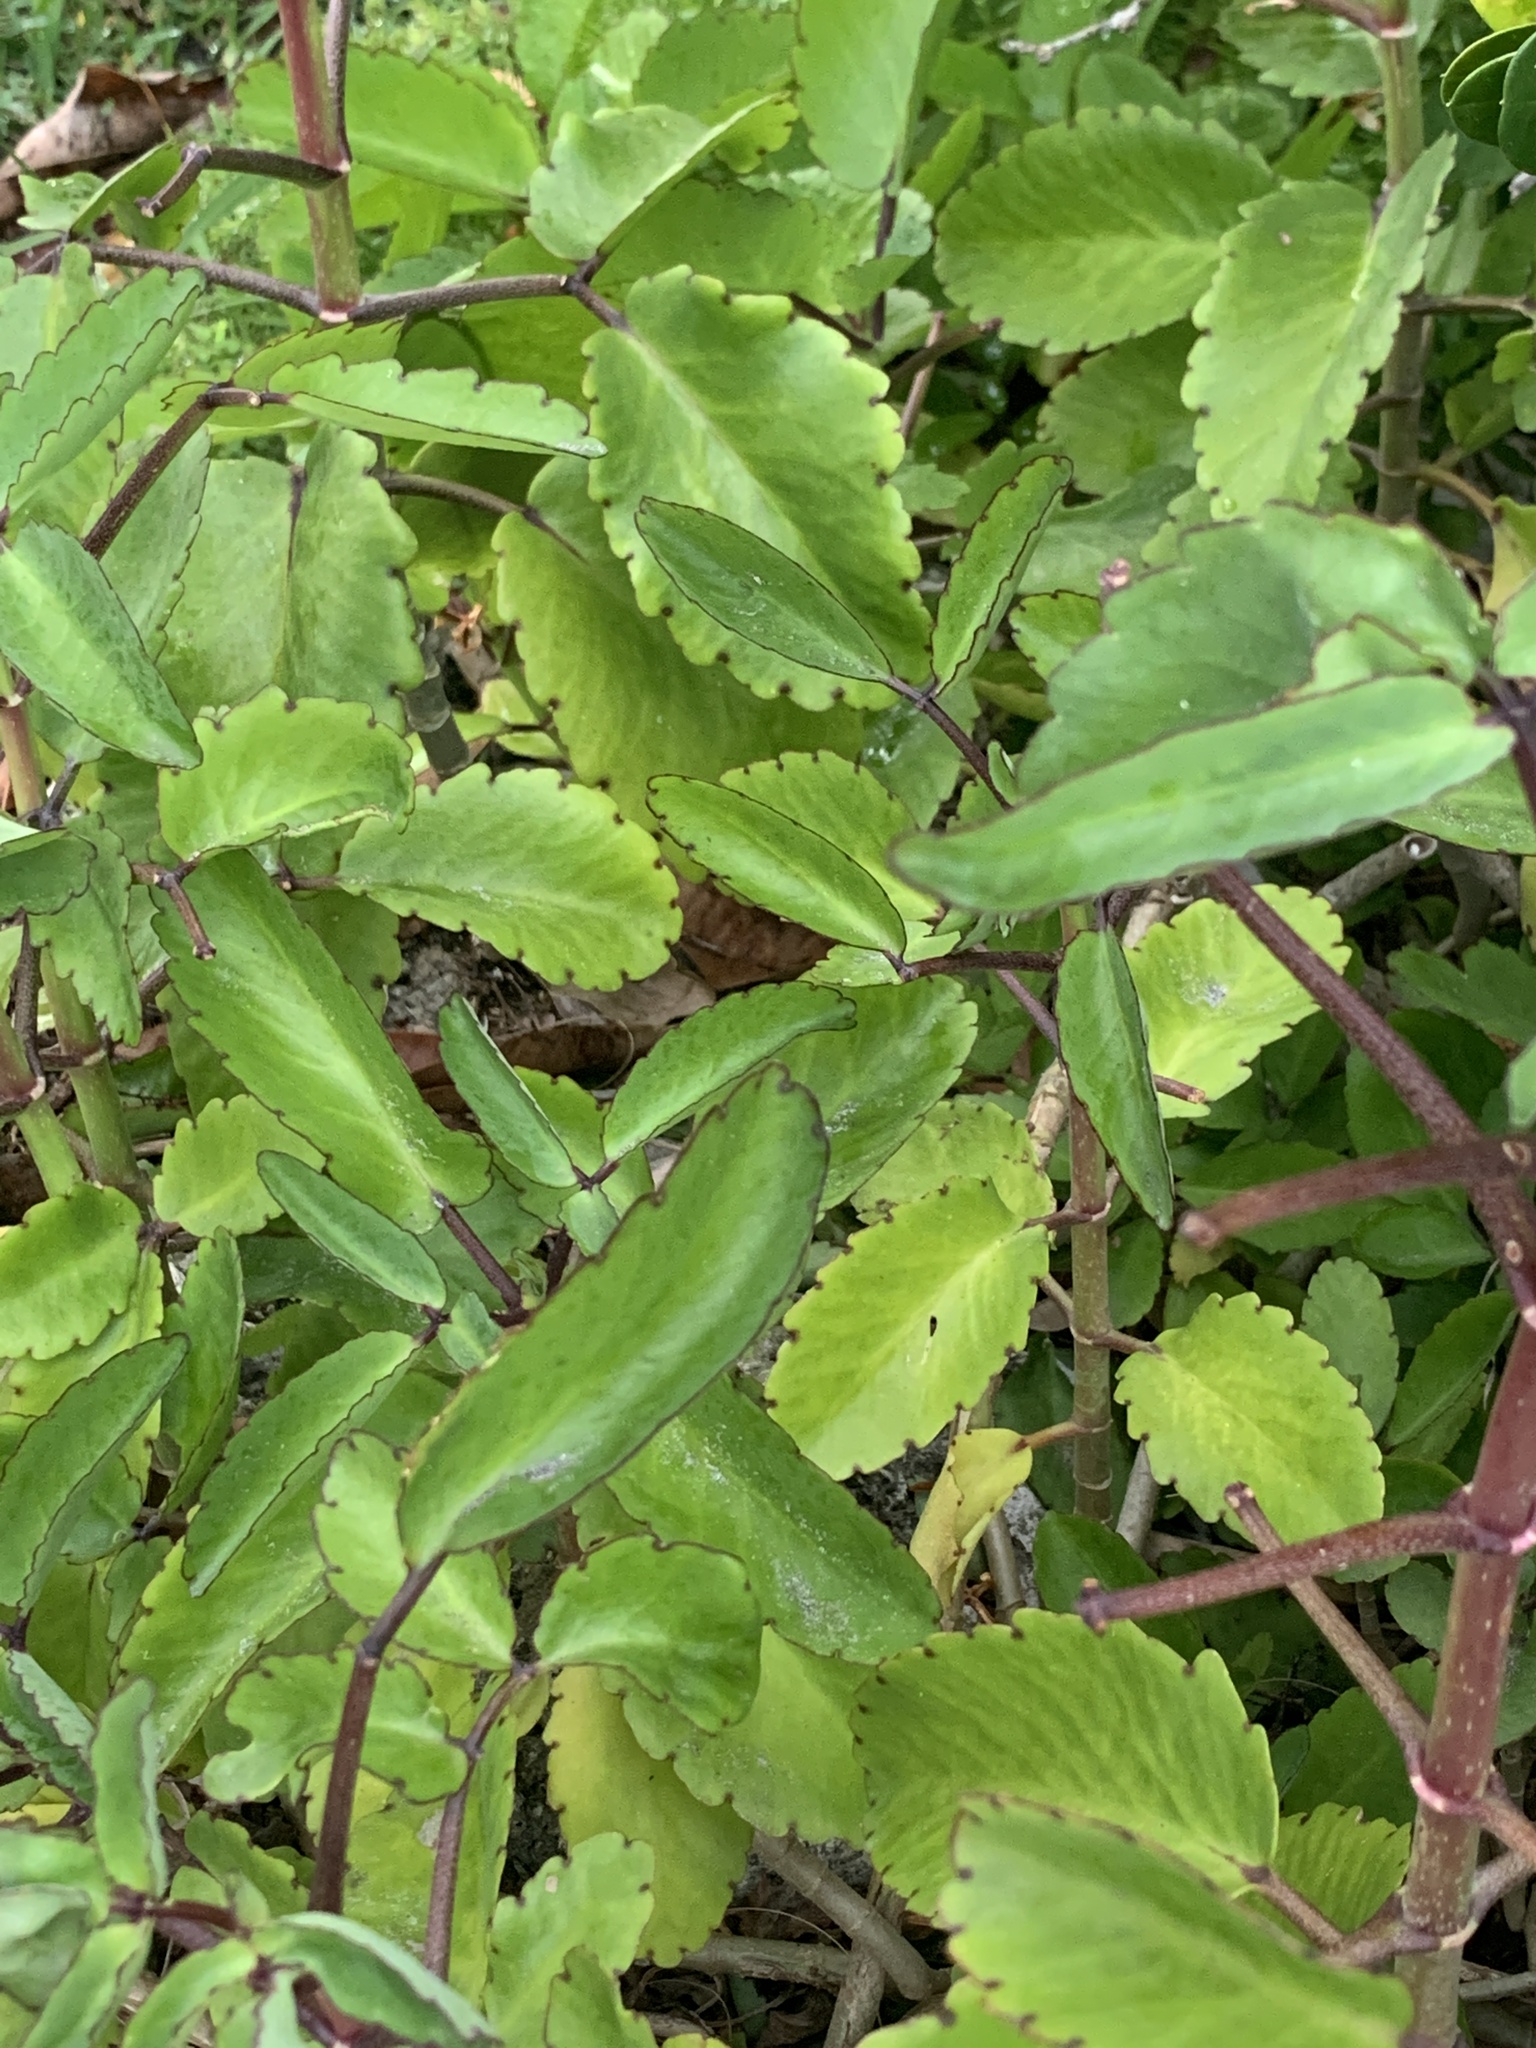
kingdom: Plantae
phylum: Tracheophyta
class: Magnoliopsida
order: Saxifragales
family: Crassulaceae
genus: Kalanchoe
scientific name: Kalanchoe pinnata
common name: Cathedral bells
